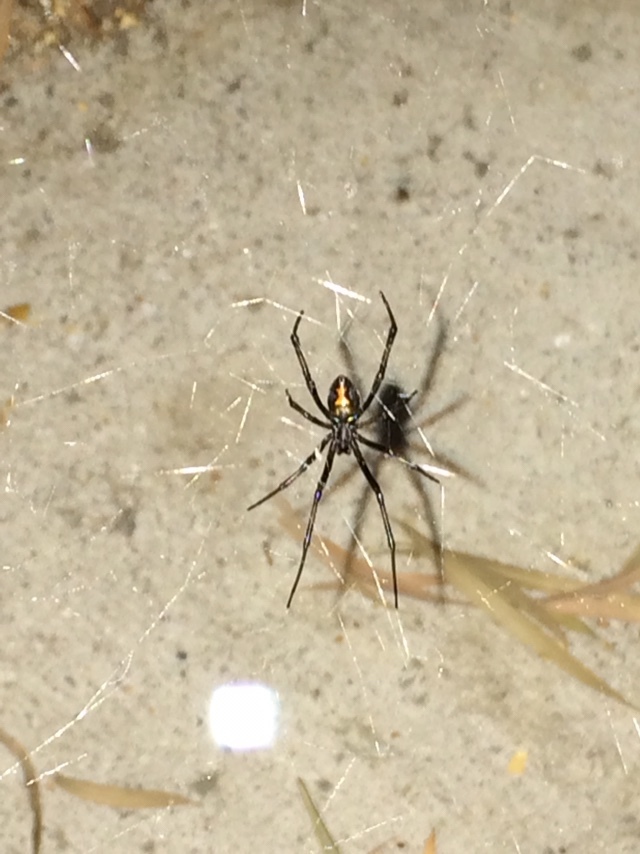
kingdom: Animalia
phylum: Arthropoda
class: Arachnida
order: Araneae
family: Theridiidae
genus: Latrodectus
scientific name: Latrodectus hesperus
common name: Western black widow
